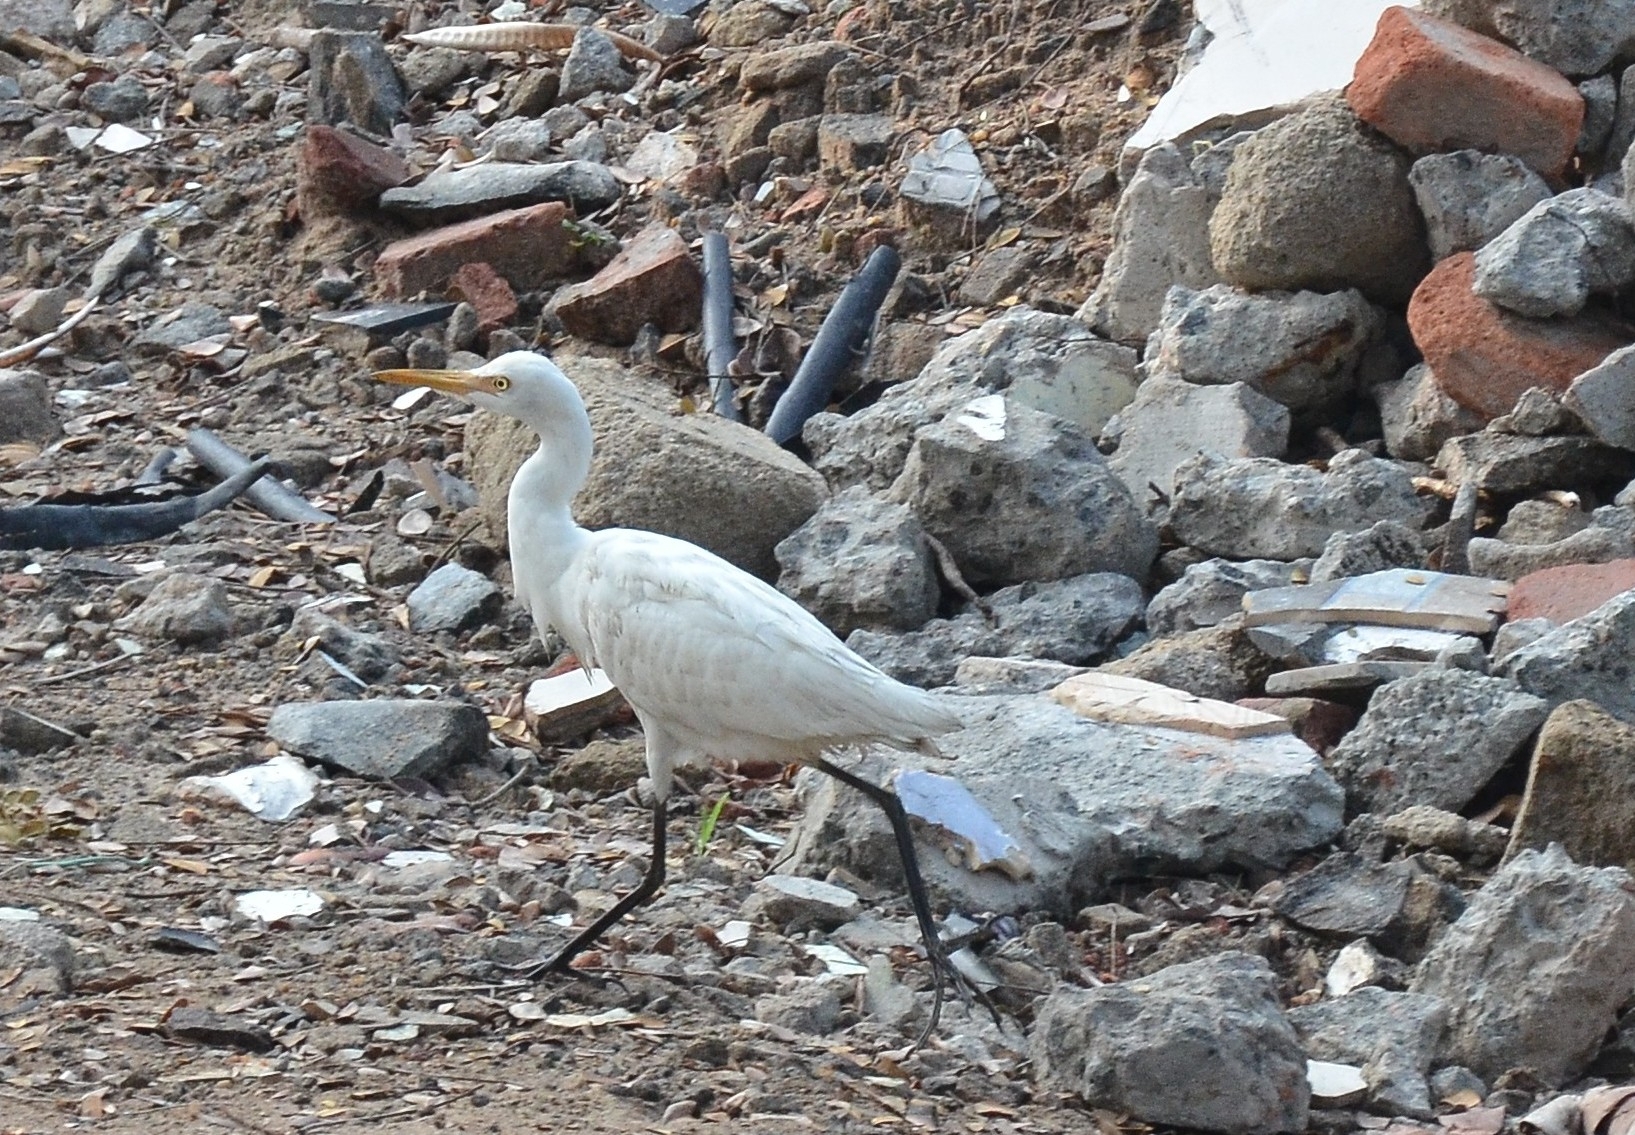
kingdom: Animalia
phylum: Chordata
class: Aves
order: Pelecaniformes
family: Ardeidae
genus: Bubulcus
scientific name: Bubulcus coromandus
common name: Eastern cattle egret
